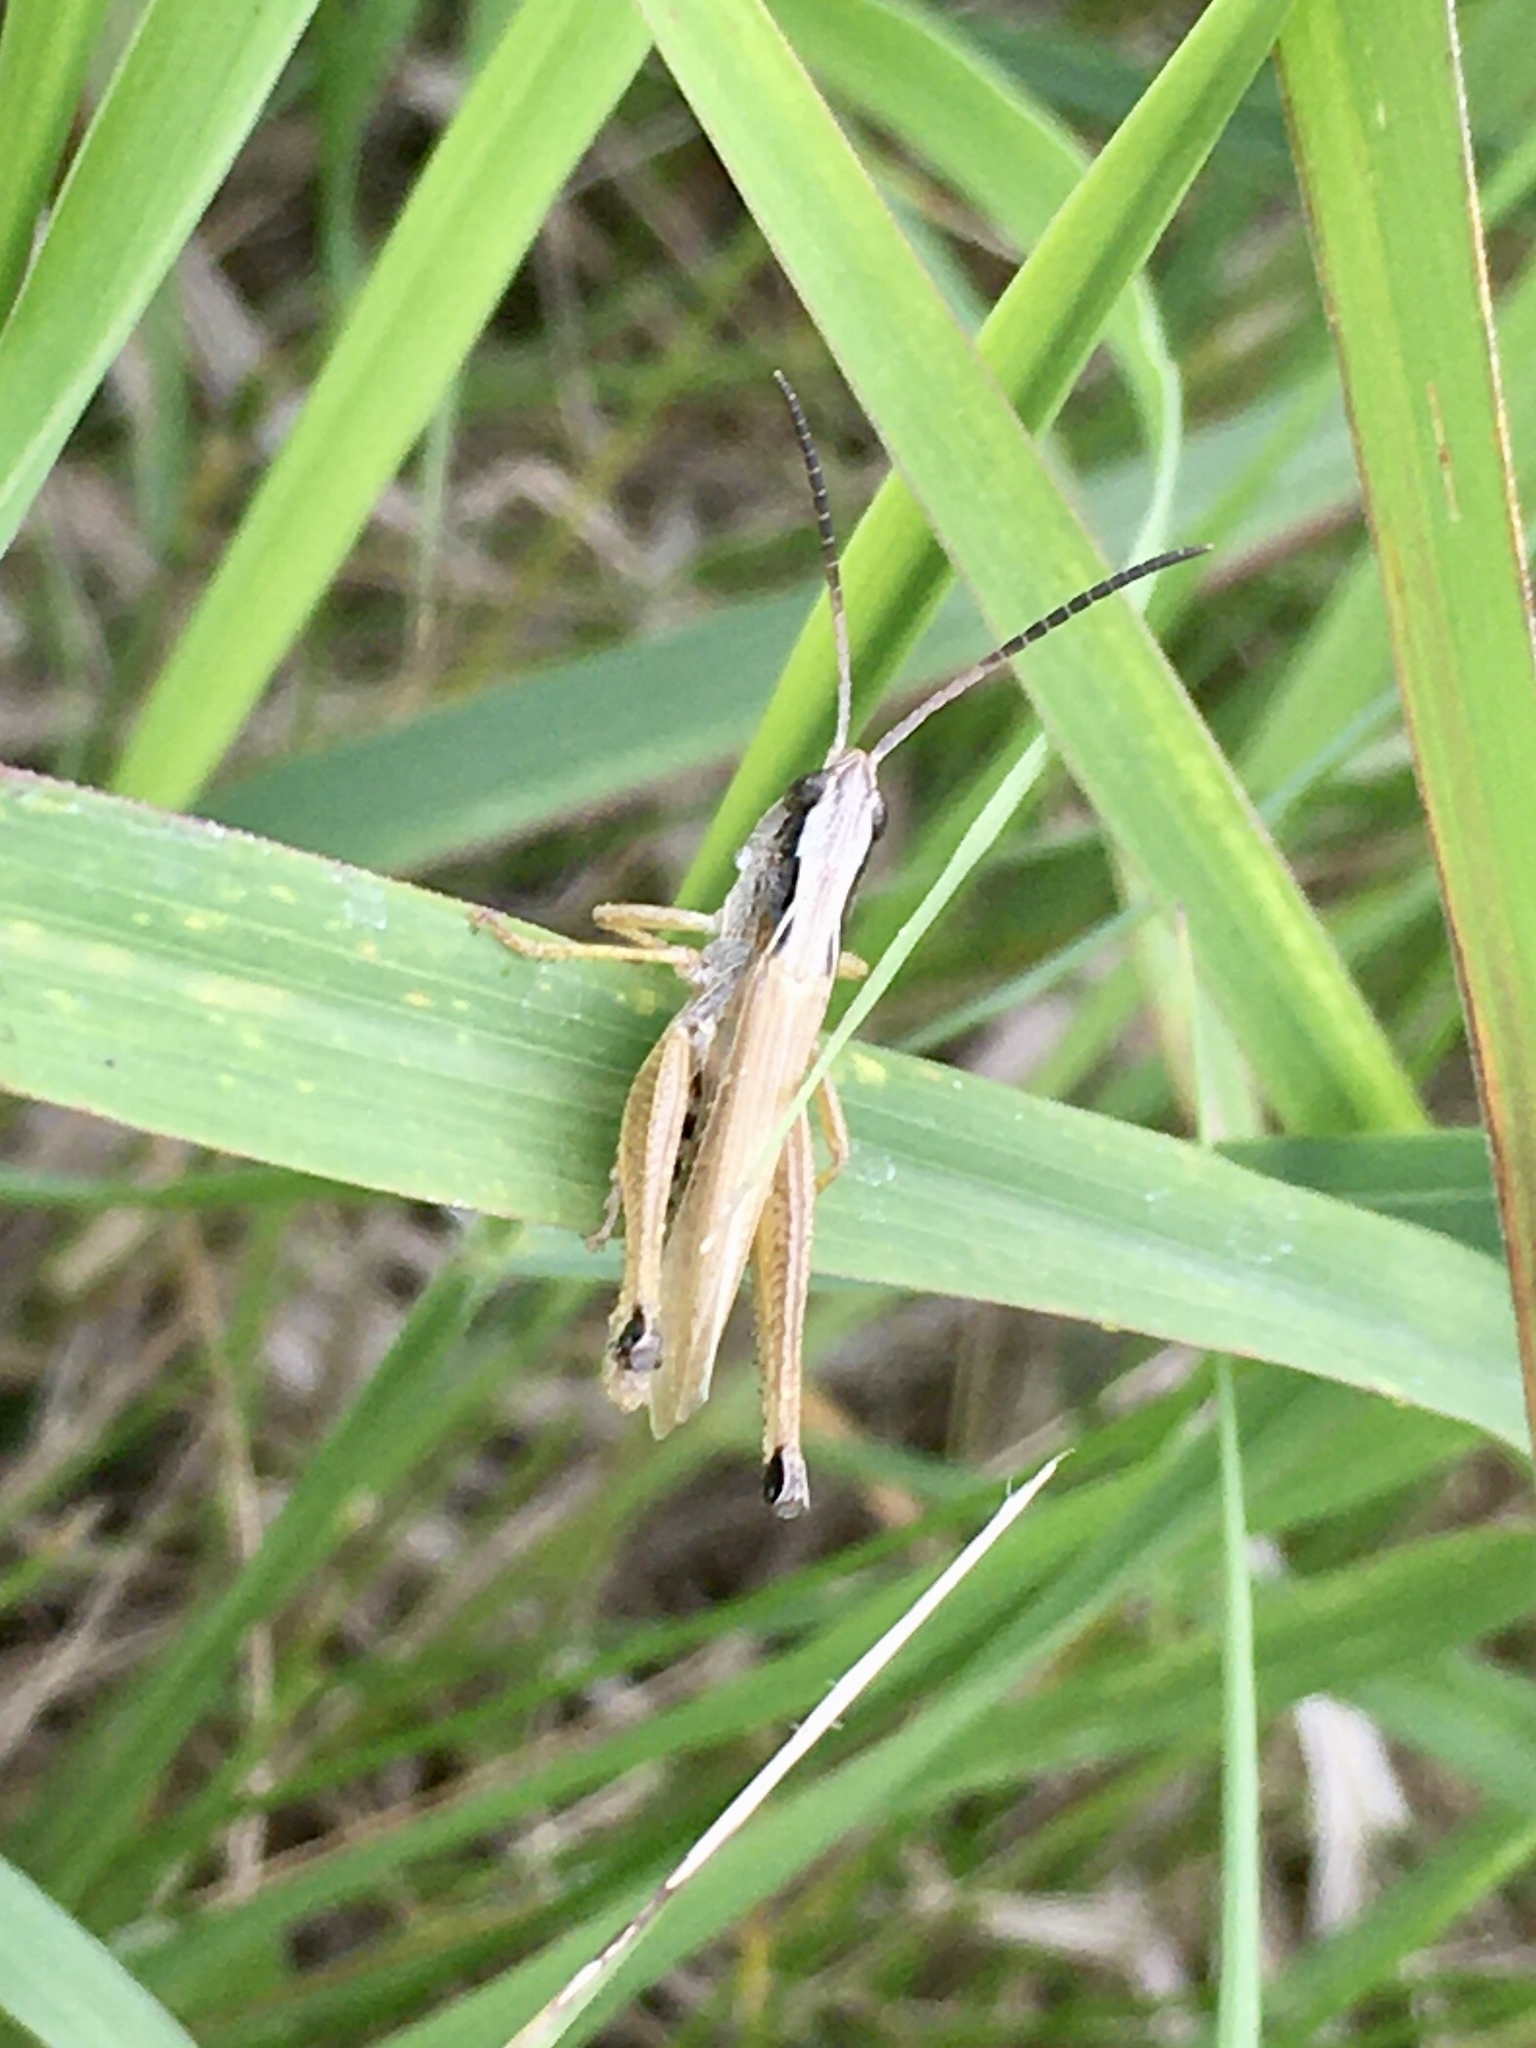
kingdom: Animalia
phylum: Arthropoda
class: Insecta
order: Orthoptera
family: Acrididae
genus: Pseudochorthippus
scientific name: Pseudochorthippus curtipennis
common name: Marsh meadow grasshopper
